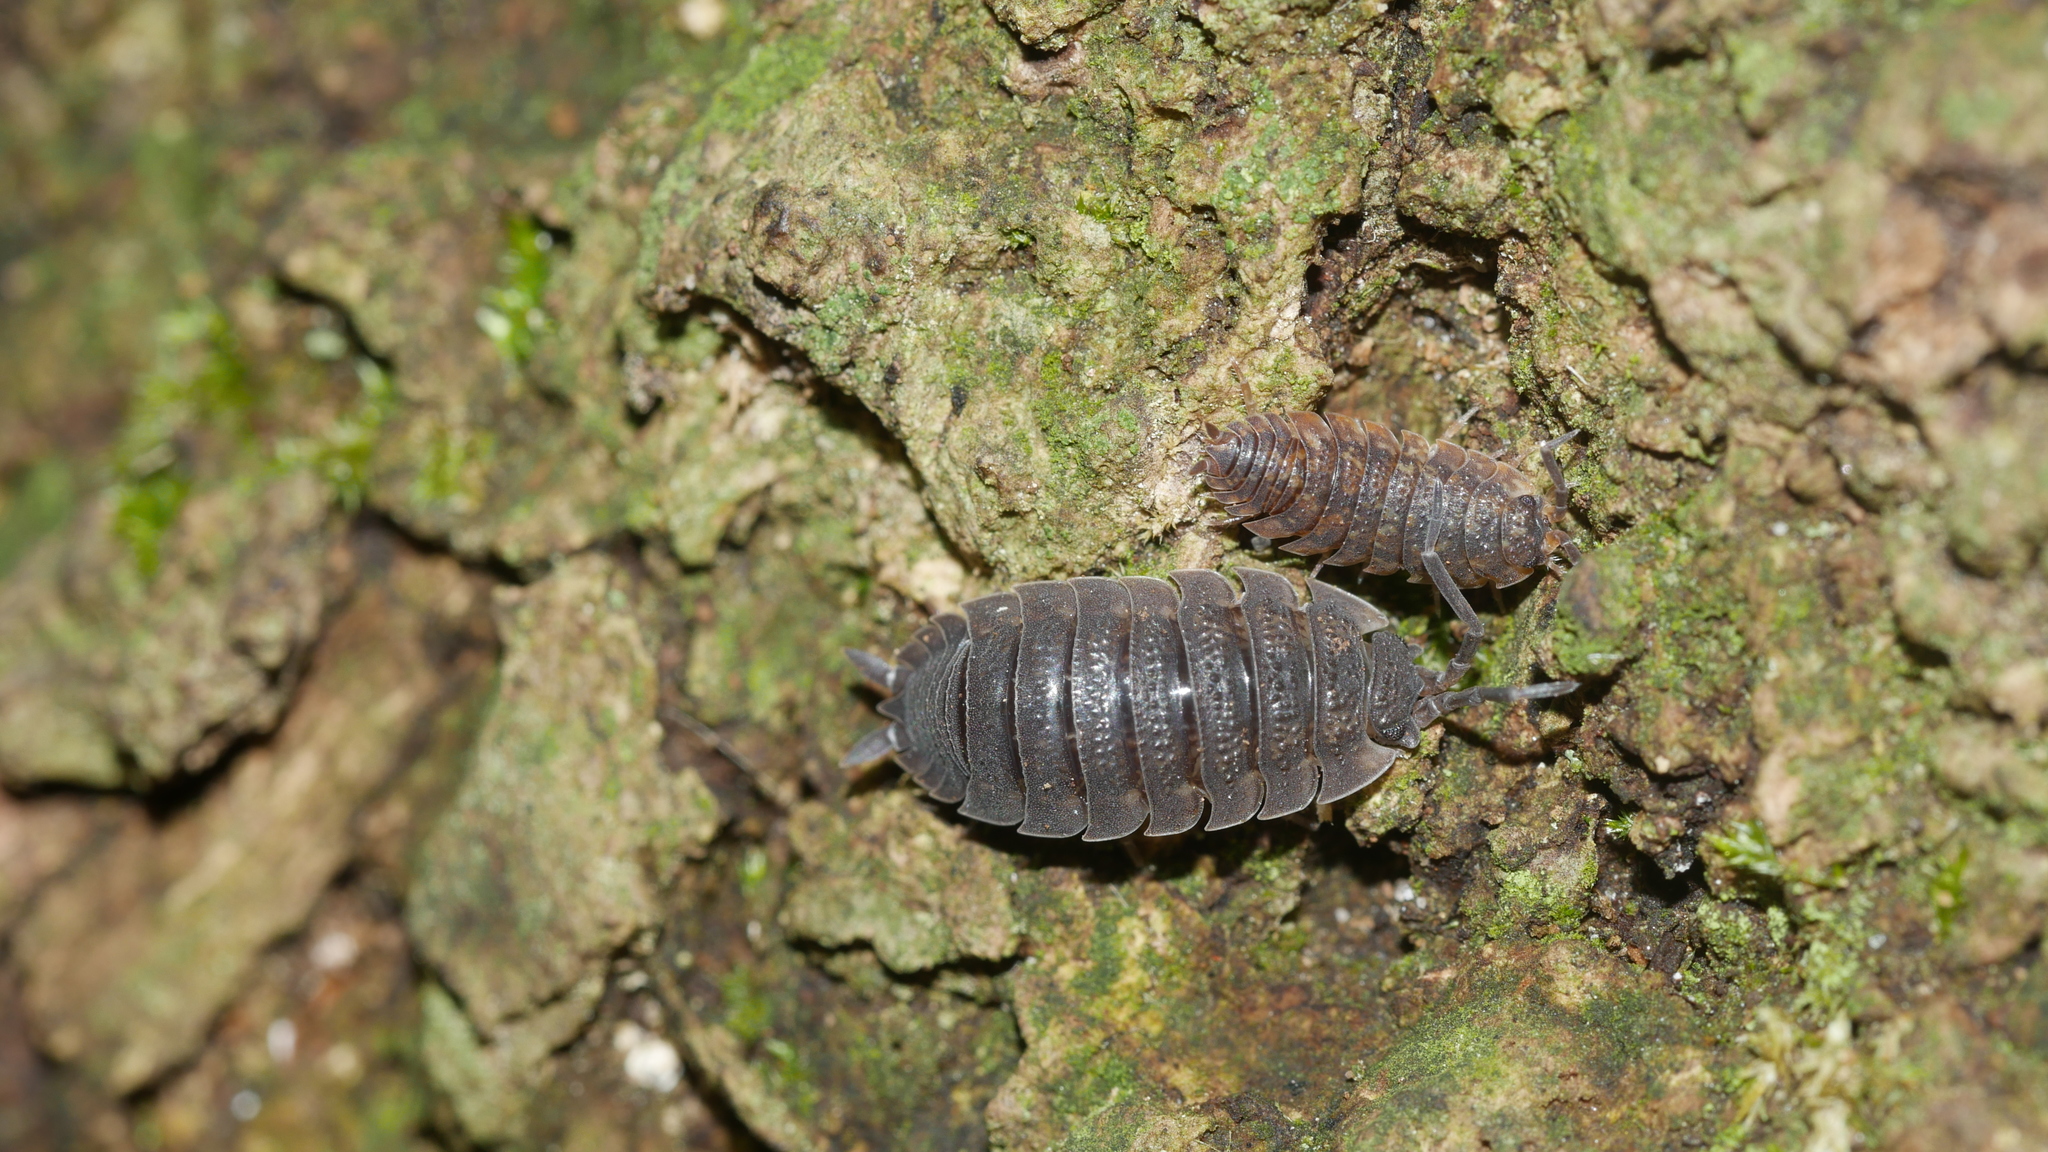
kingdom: Animalia
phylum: Arthropoda
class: Malacostraca
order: Isopoda
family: Porcellionidae
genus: Porcellio
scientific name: Porcellio scaber
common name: Common rough woodlouse
